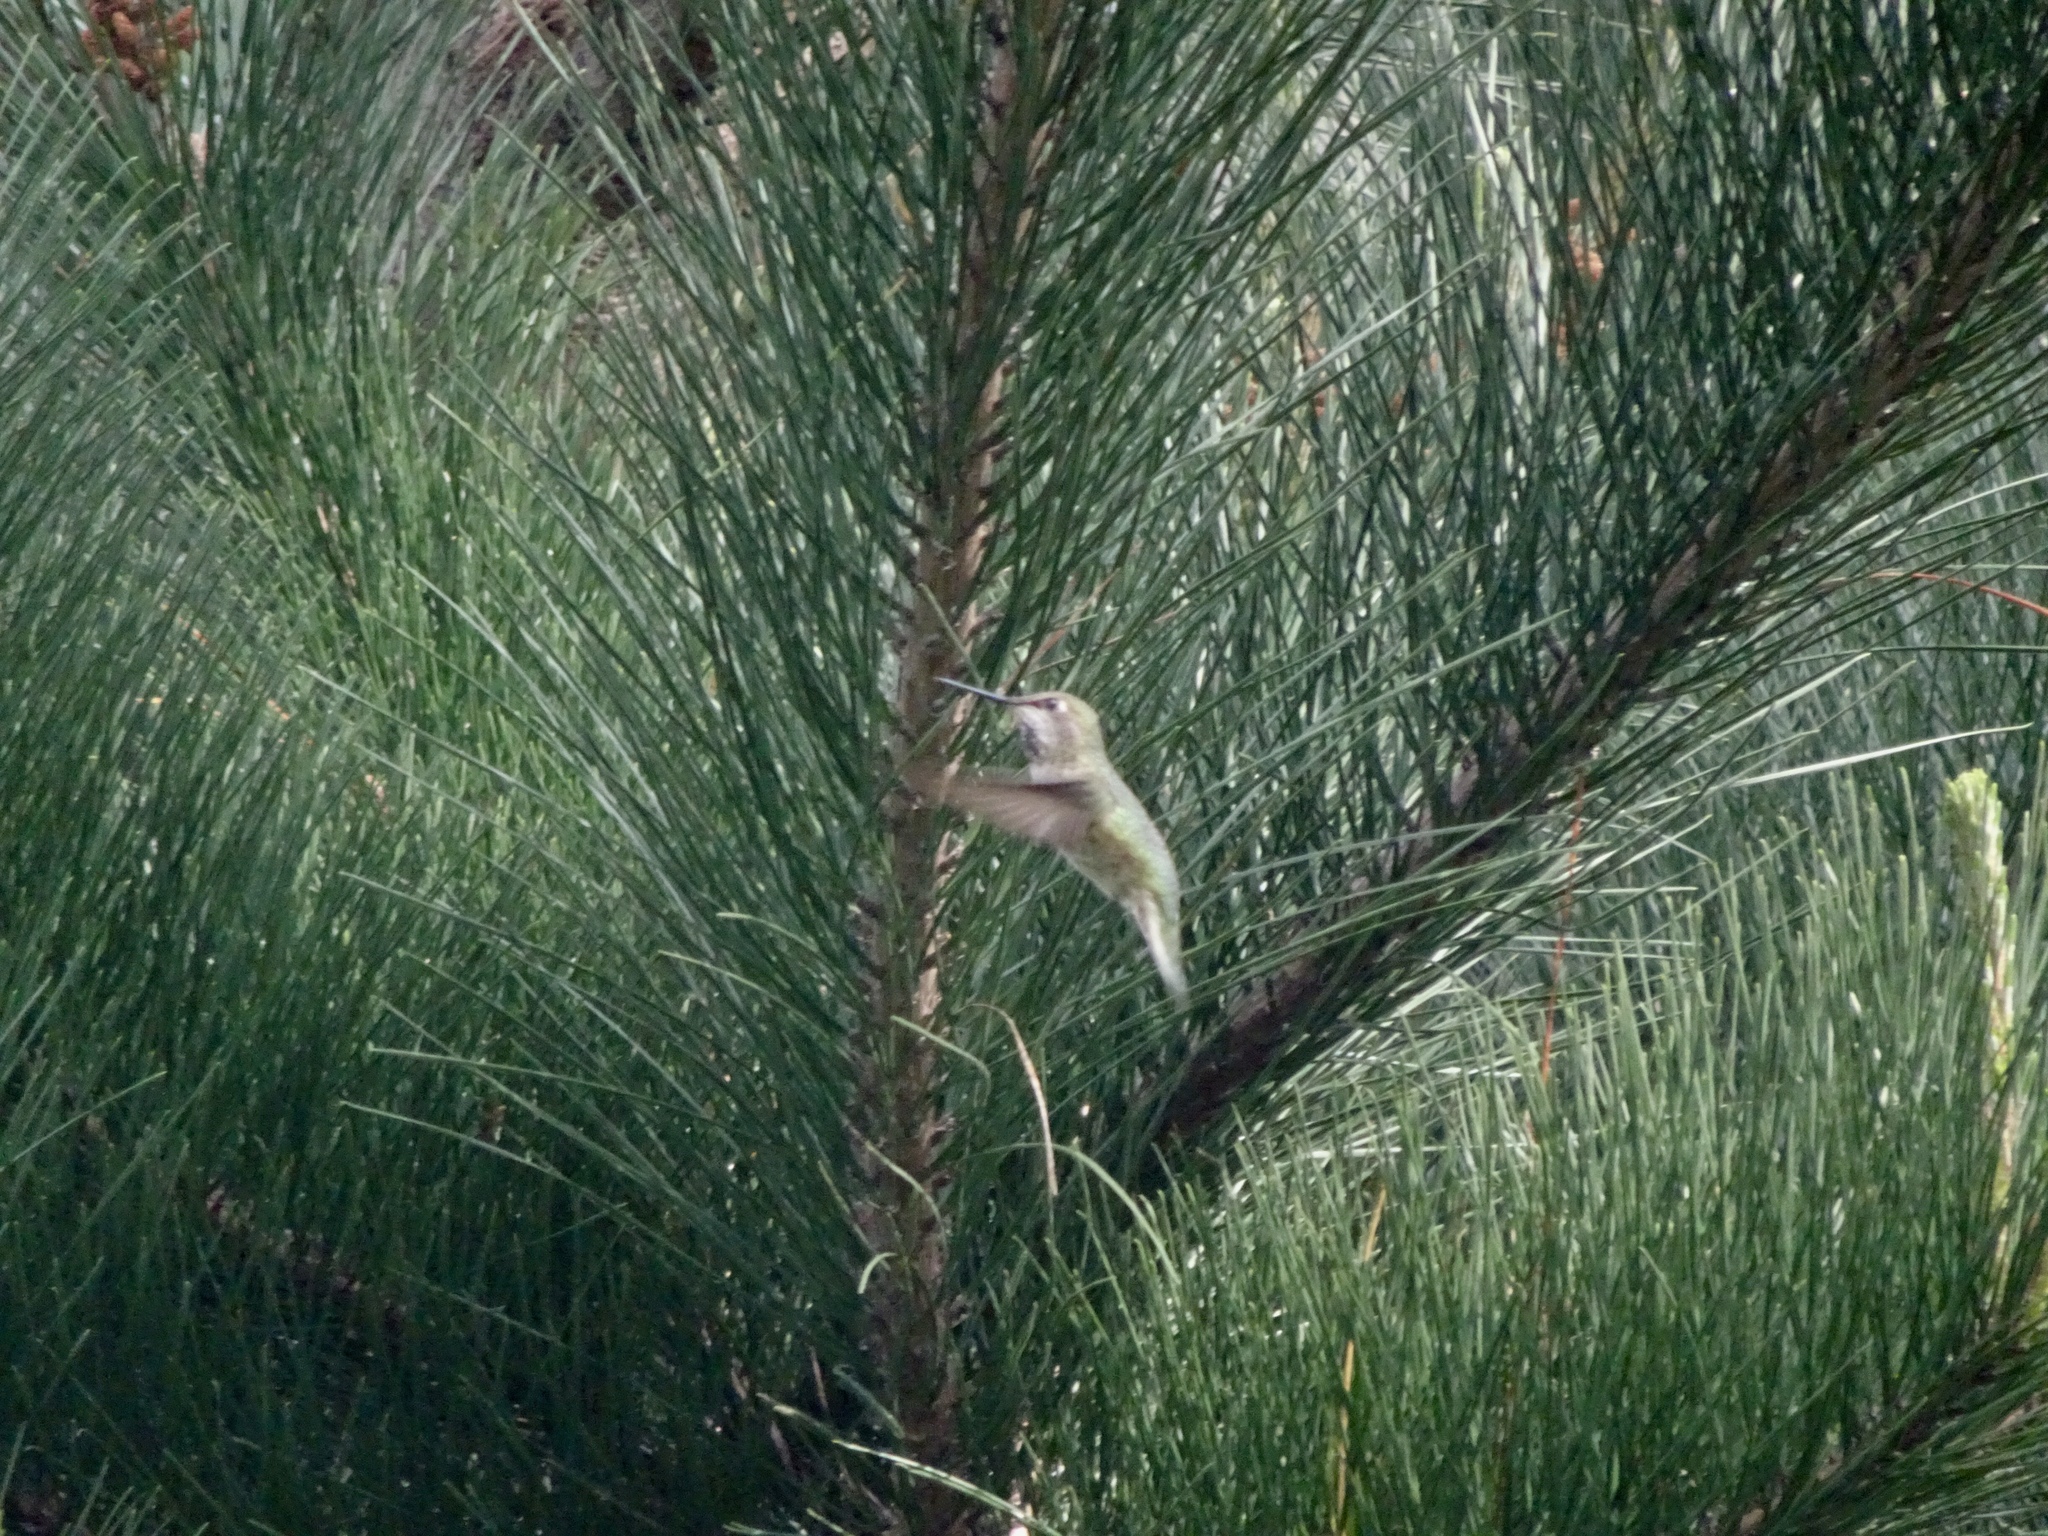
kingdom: Animalia
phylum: Chordata
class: Aves
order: Apodiformes
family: Trochilidae
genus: Calypte
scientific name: Calypte anna
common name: Anna's hummingbird
